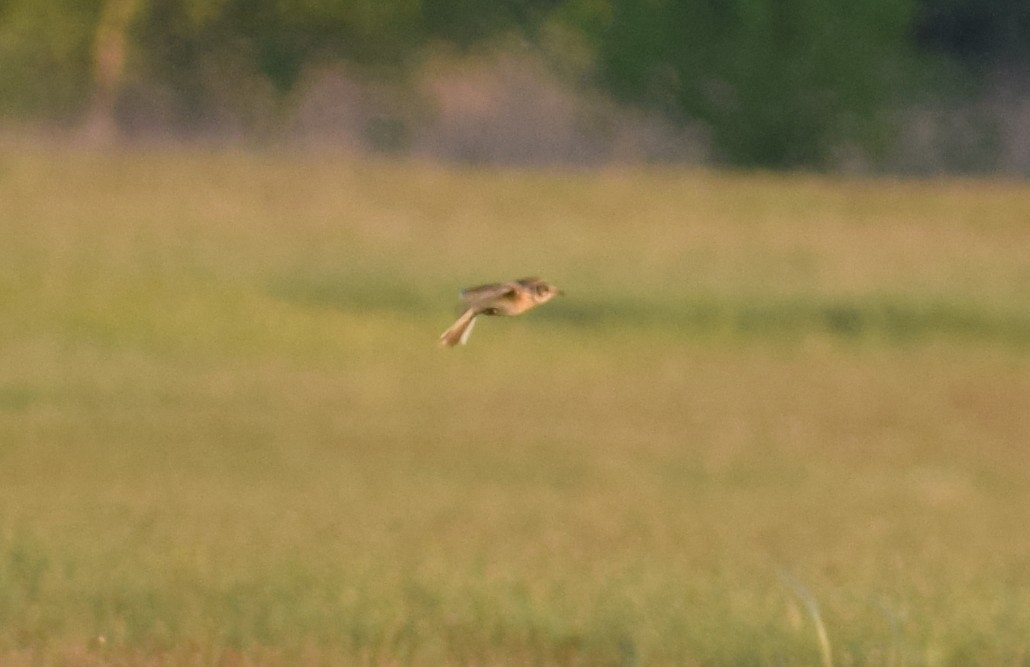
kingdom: Animalia
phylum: Chordata
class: Aves
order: Passeriformes
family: Muscicapidae
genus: Saxicola
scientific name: Saxicola rubetra
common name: Whinchat
